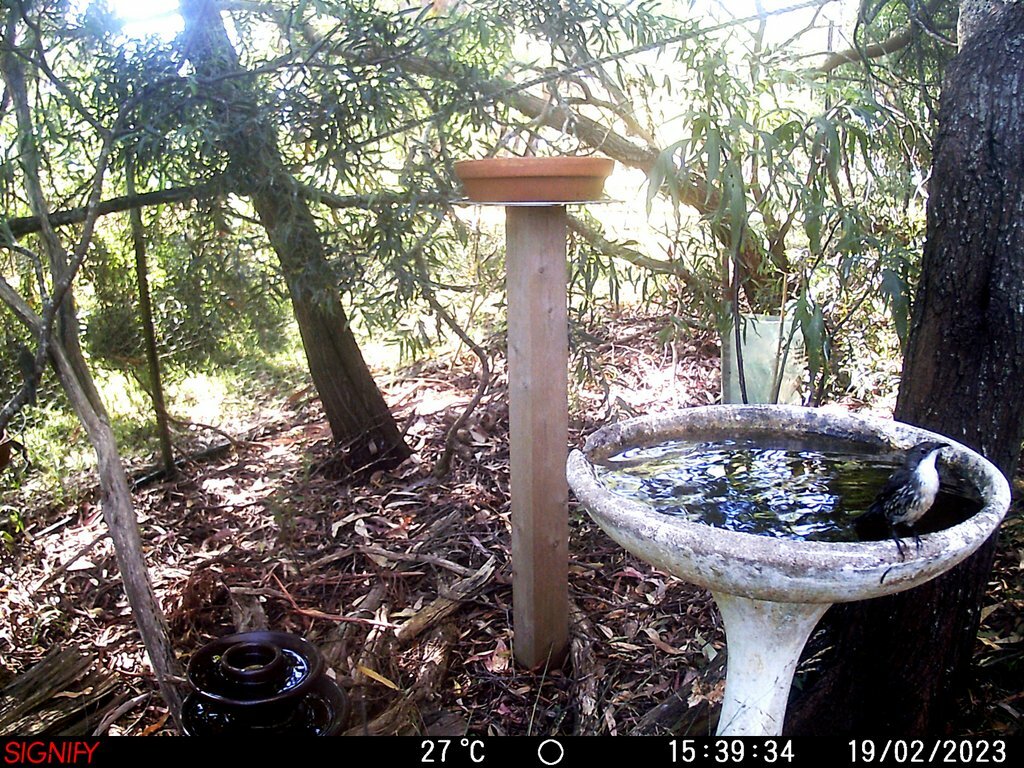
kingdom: Animalia
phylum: Chordata
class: Aves
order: Passeriformes
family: Climacteridae
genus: Cormobates
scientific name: Cormobates leucophaea
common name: White-throated treecreeper
